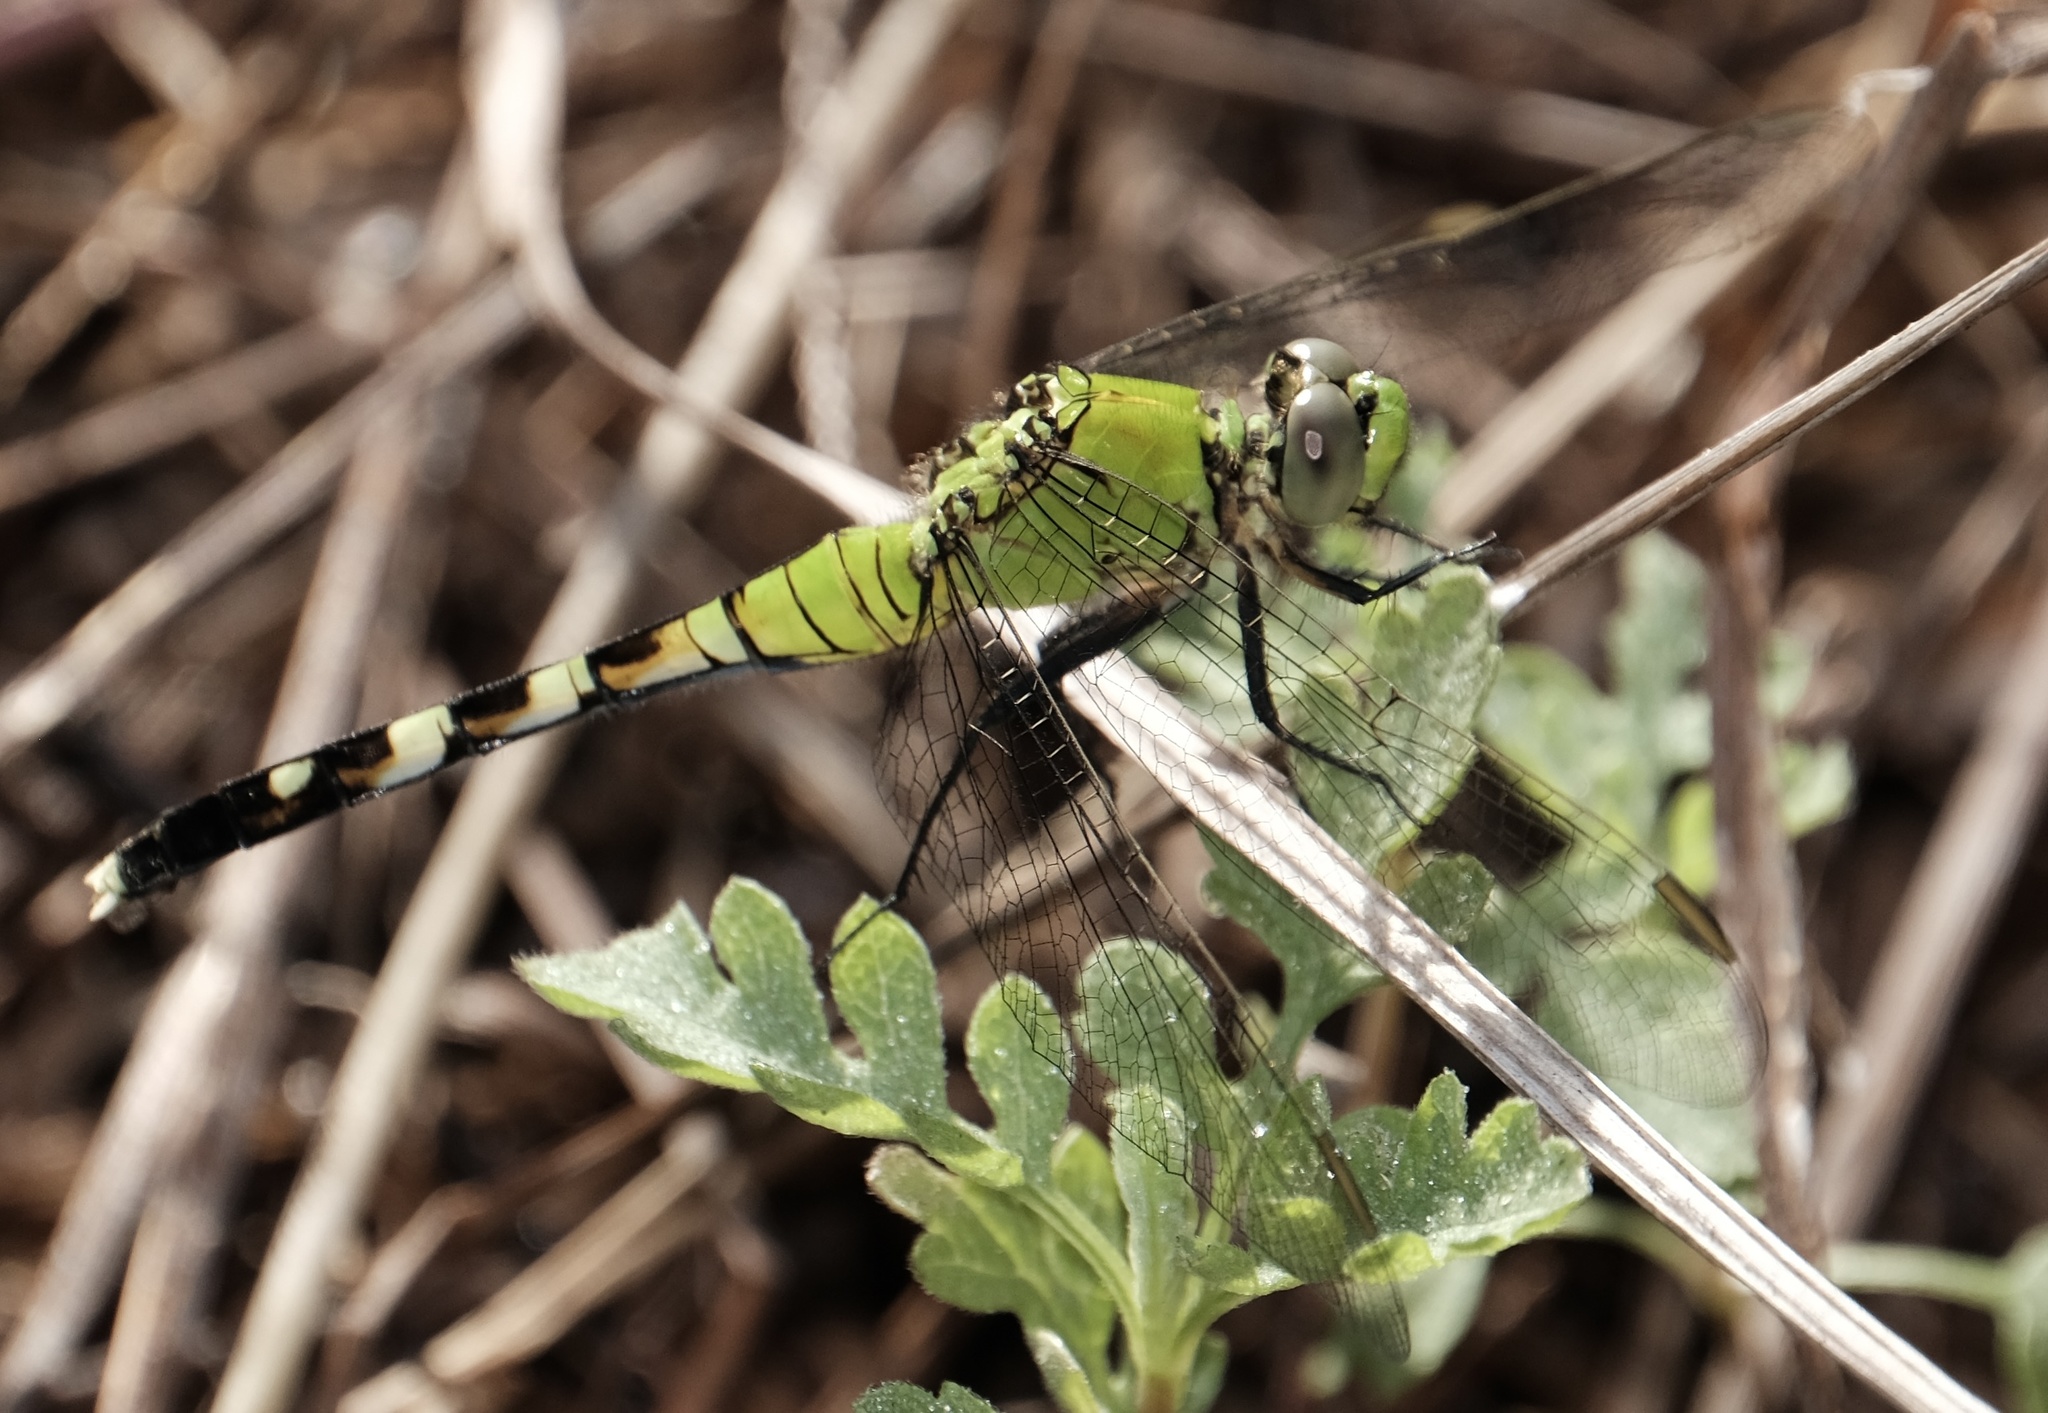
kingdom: Animalia
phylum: Arthropoda
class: Insecta
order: Odonata
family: Libellulidae
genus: Erythemis
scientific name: Erythemis simplicicollis
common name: Eastern pondhawk
